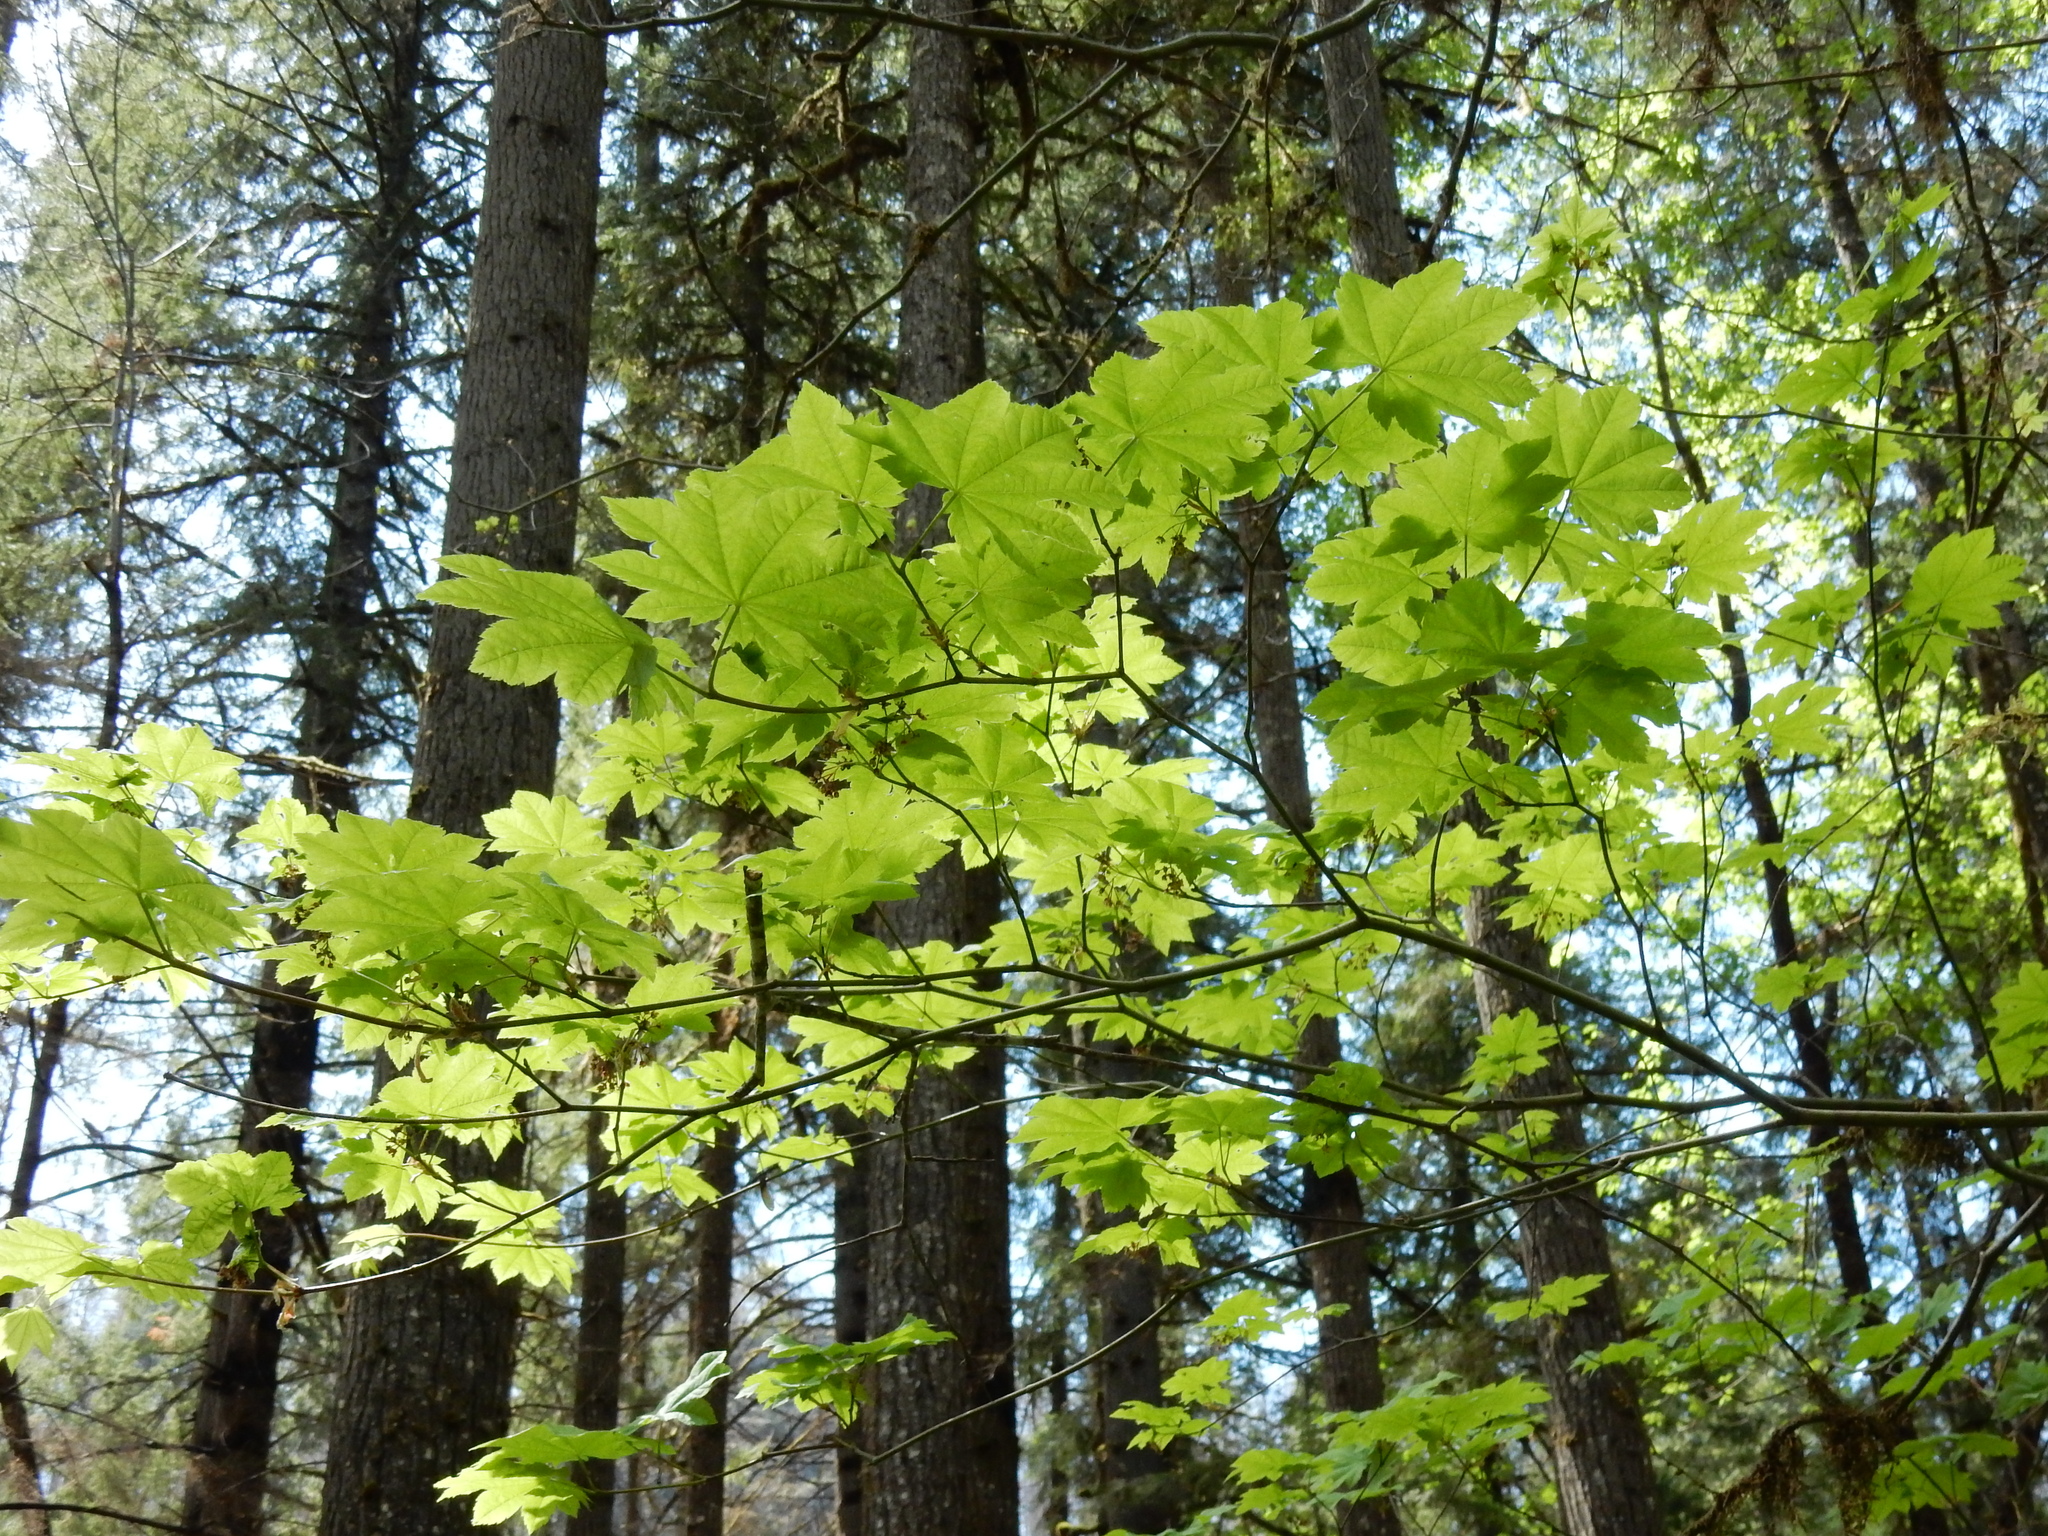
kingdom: Plantae
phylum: Tracheophyta
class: Magnoliopsida
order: Sapindales
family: Sapindaceae
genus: Acer
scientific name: Acer circinatum
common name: Vine maple
